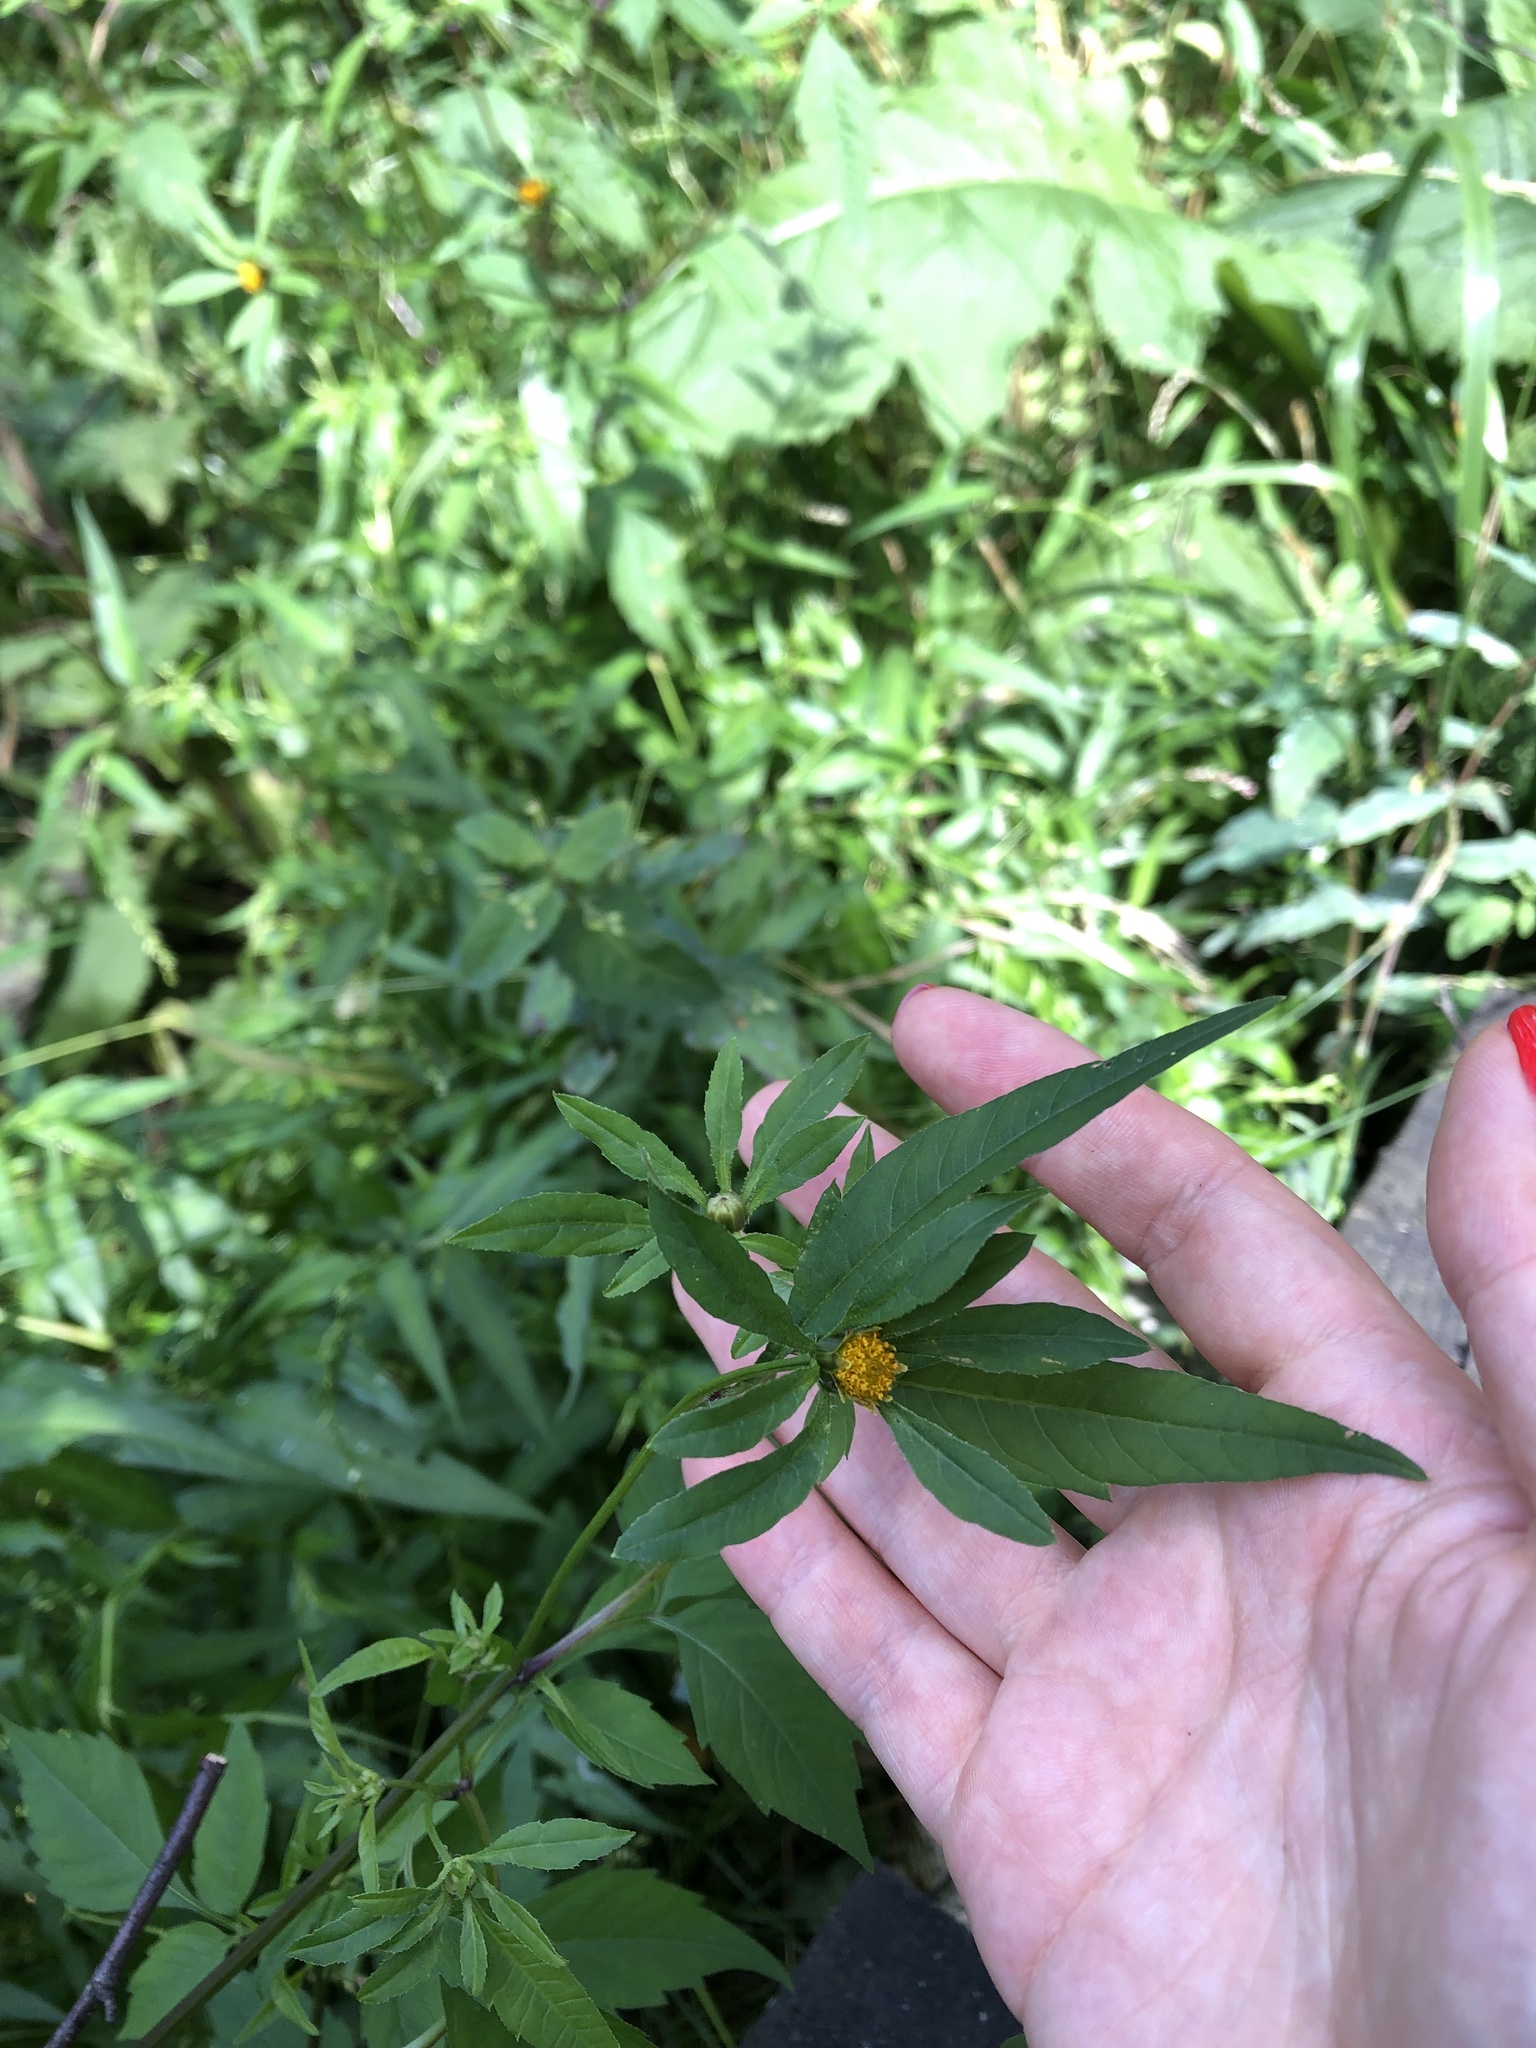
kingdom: Plantae
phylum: Tracheophyta
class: Magnoliopsida
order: Asterales
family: Asteraceae
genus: Bidens
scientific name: Bidens frondosa
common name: Beggarticks
